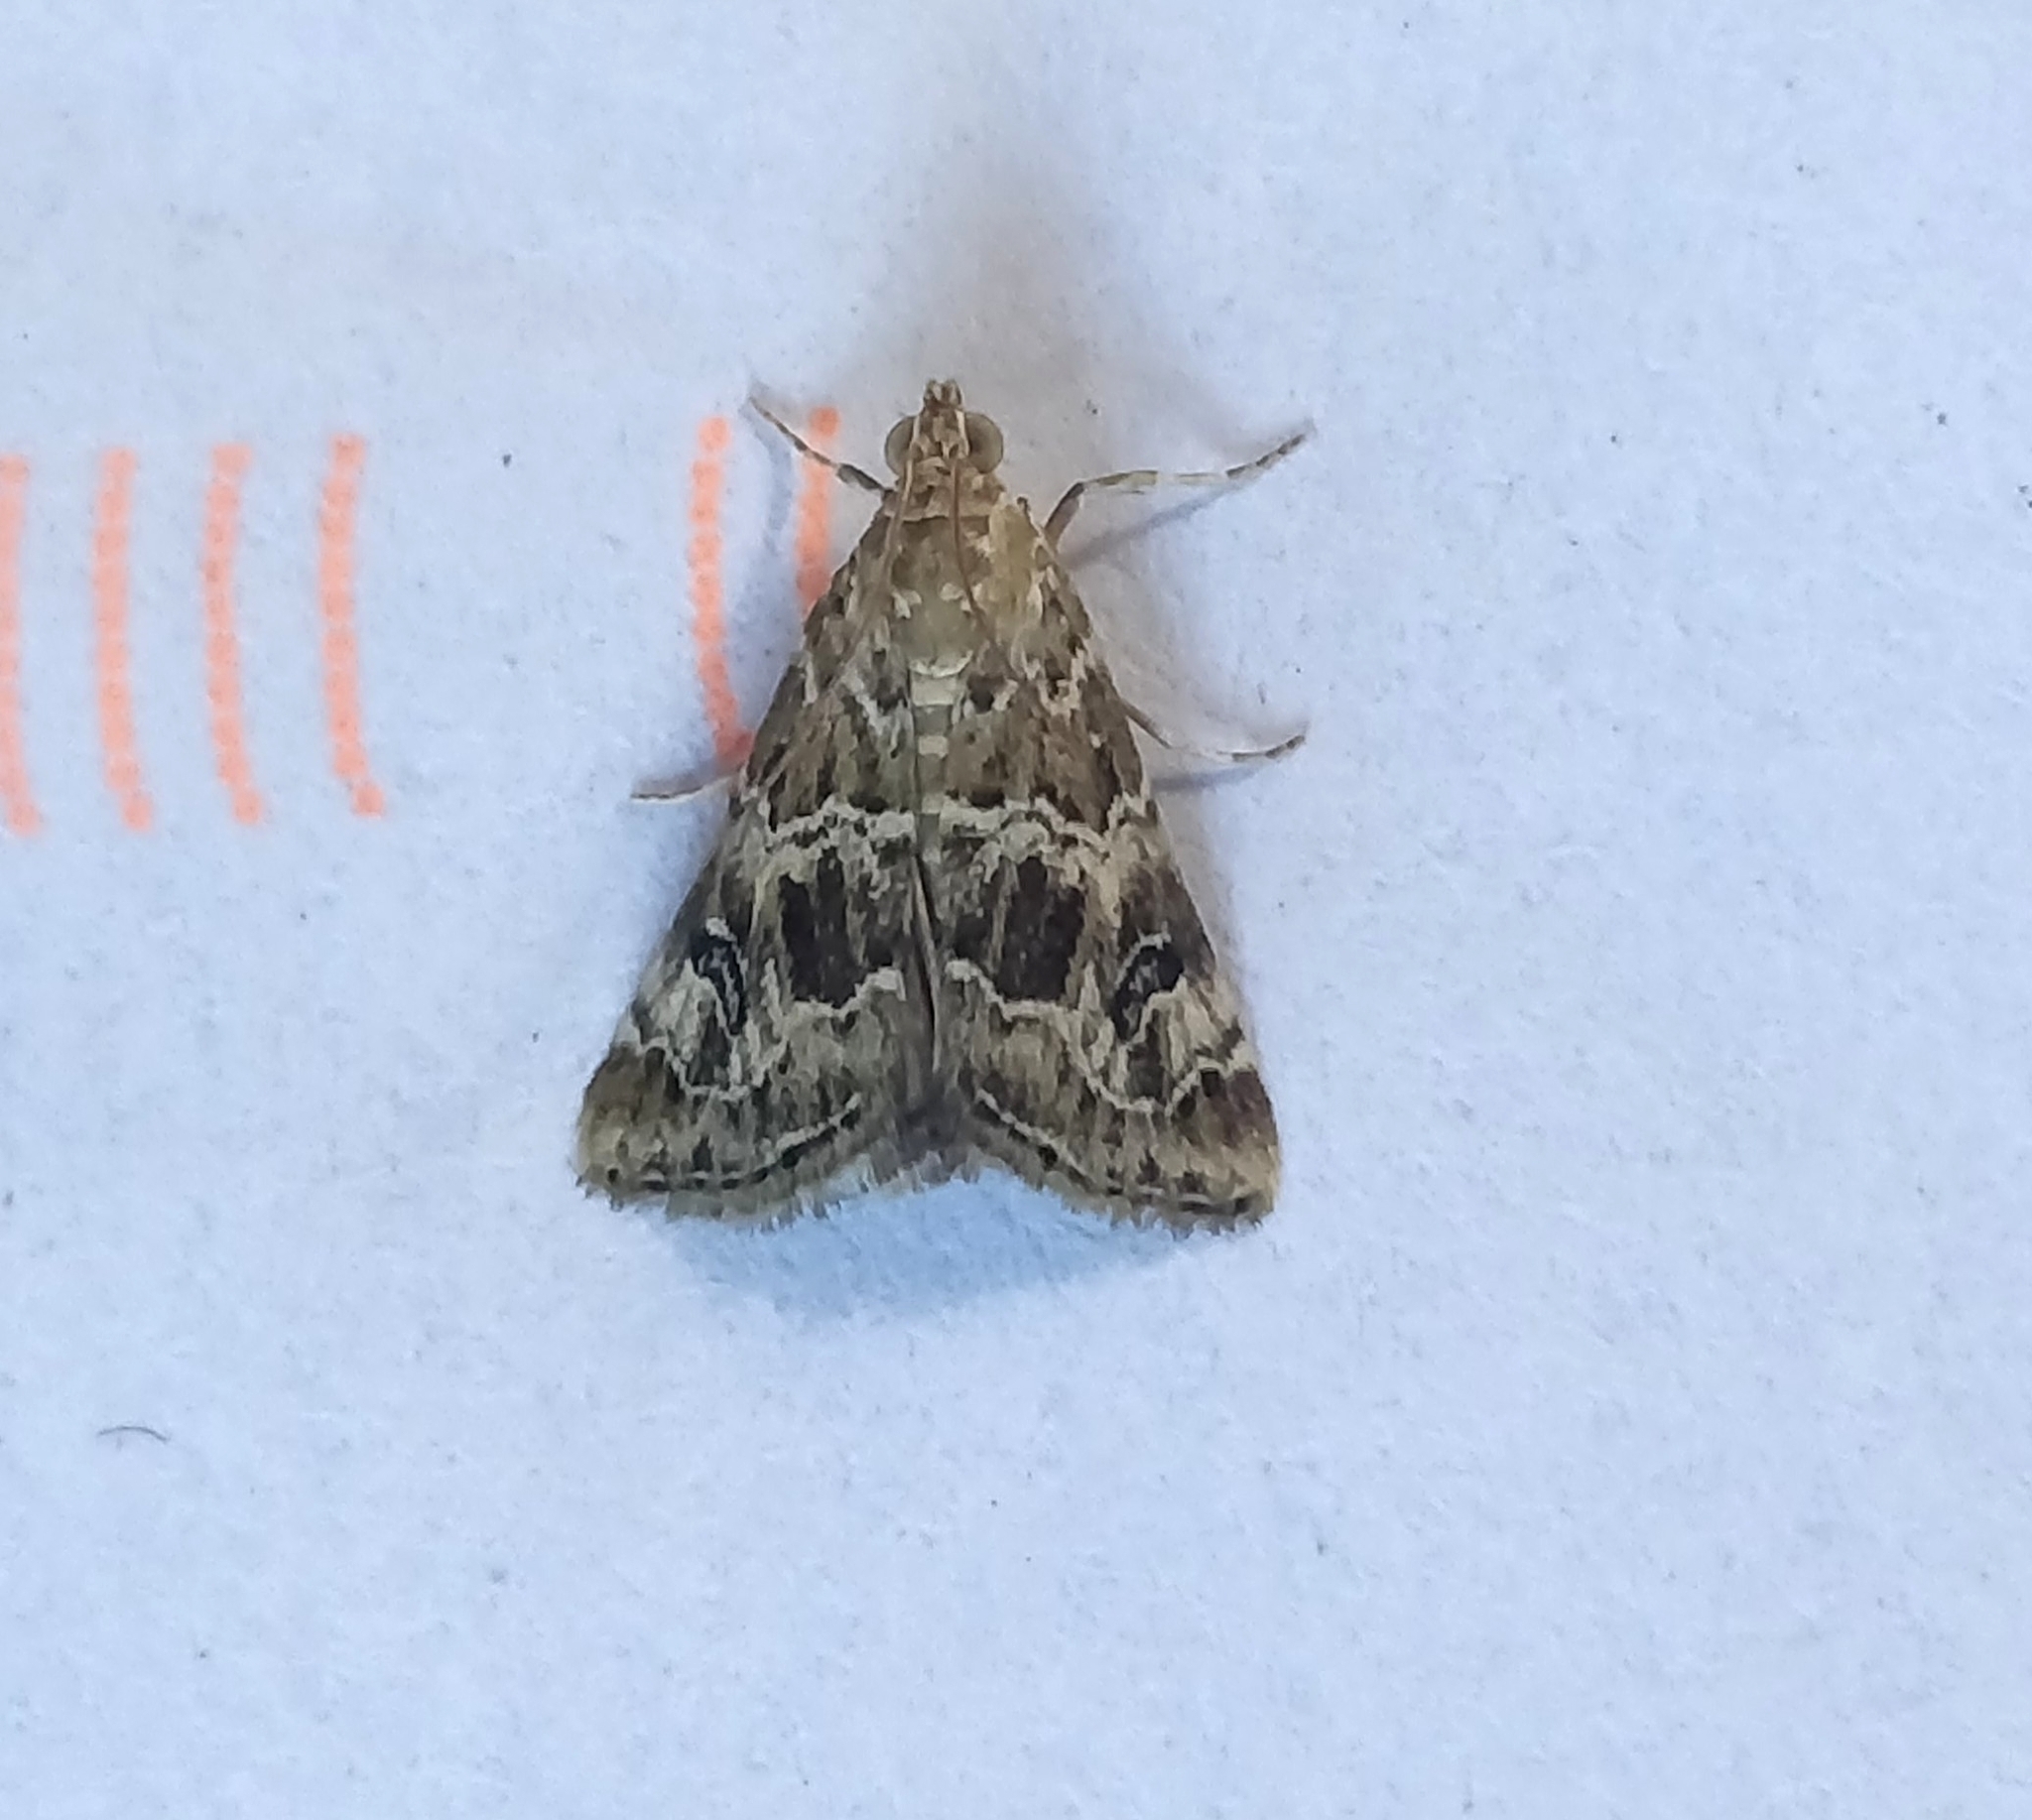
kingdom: Animalia
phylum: Arthropoda
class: Insecta
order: Lepidoptera
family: Crambidae
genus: Hellula
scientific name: Hellula undalis
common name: Cabbage webworm
